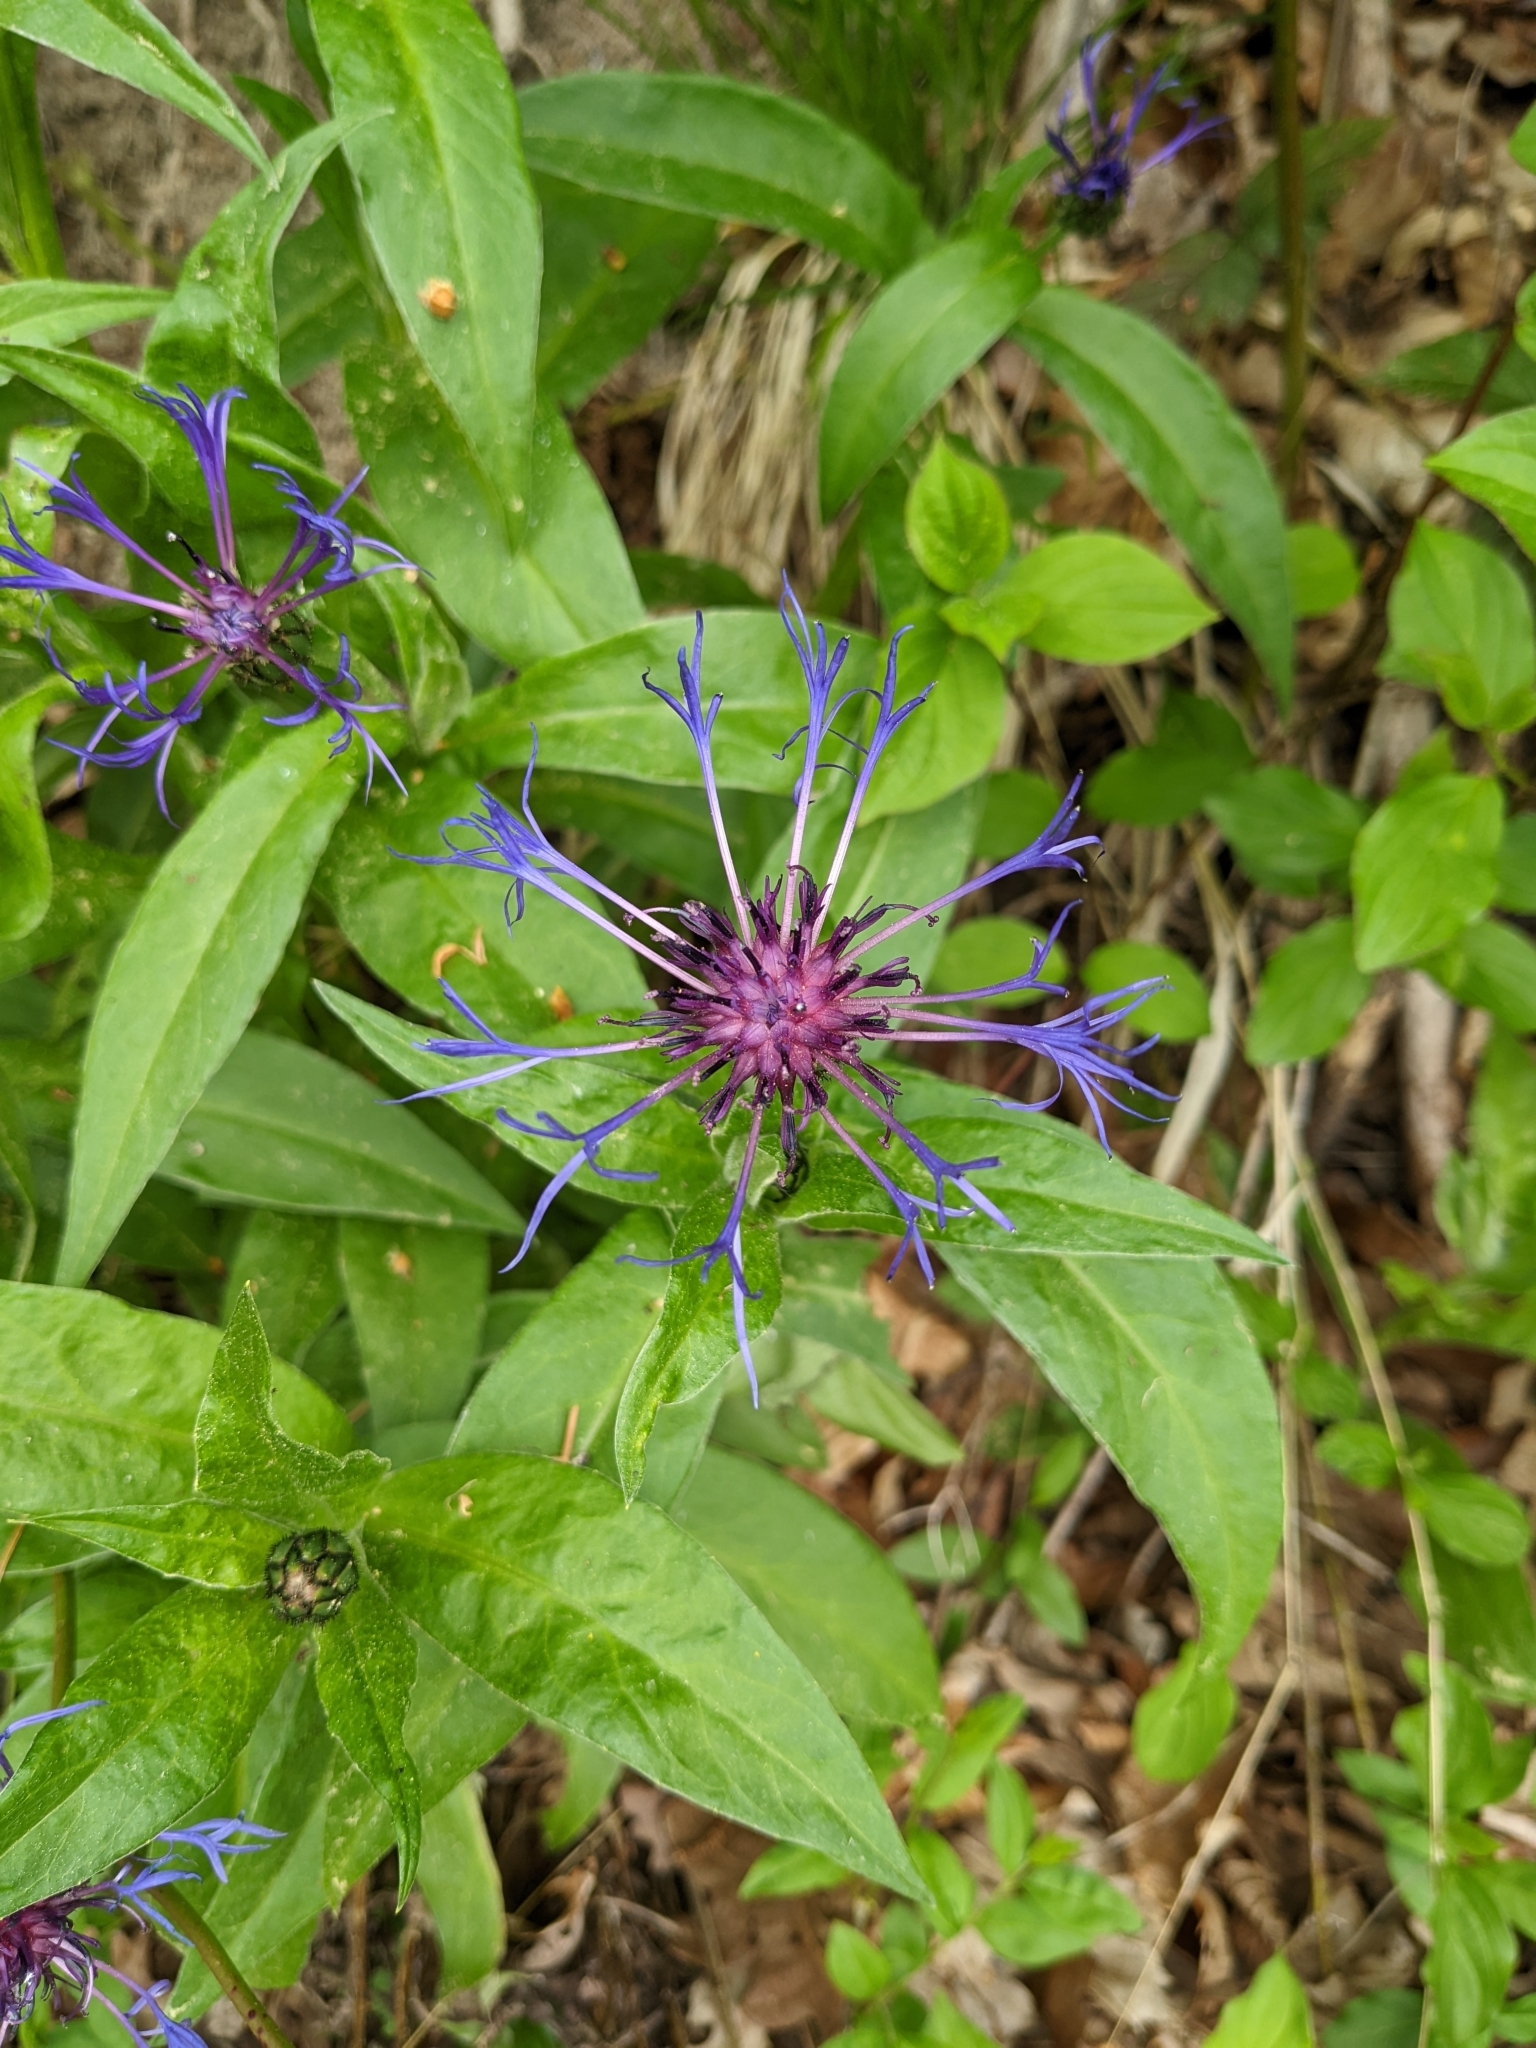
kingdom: Plantae
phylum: Tracheophyta
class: Magnoliopsida
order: Asterales
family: Asteraceae
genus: Centaurea
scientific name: Centaurea montana
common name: Perennial cornflower
